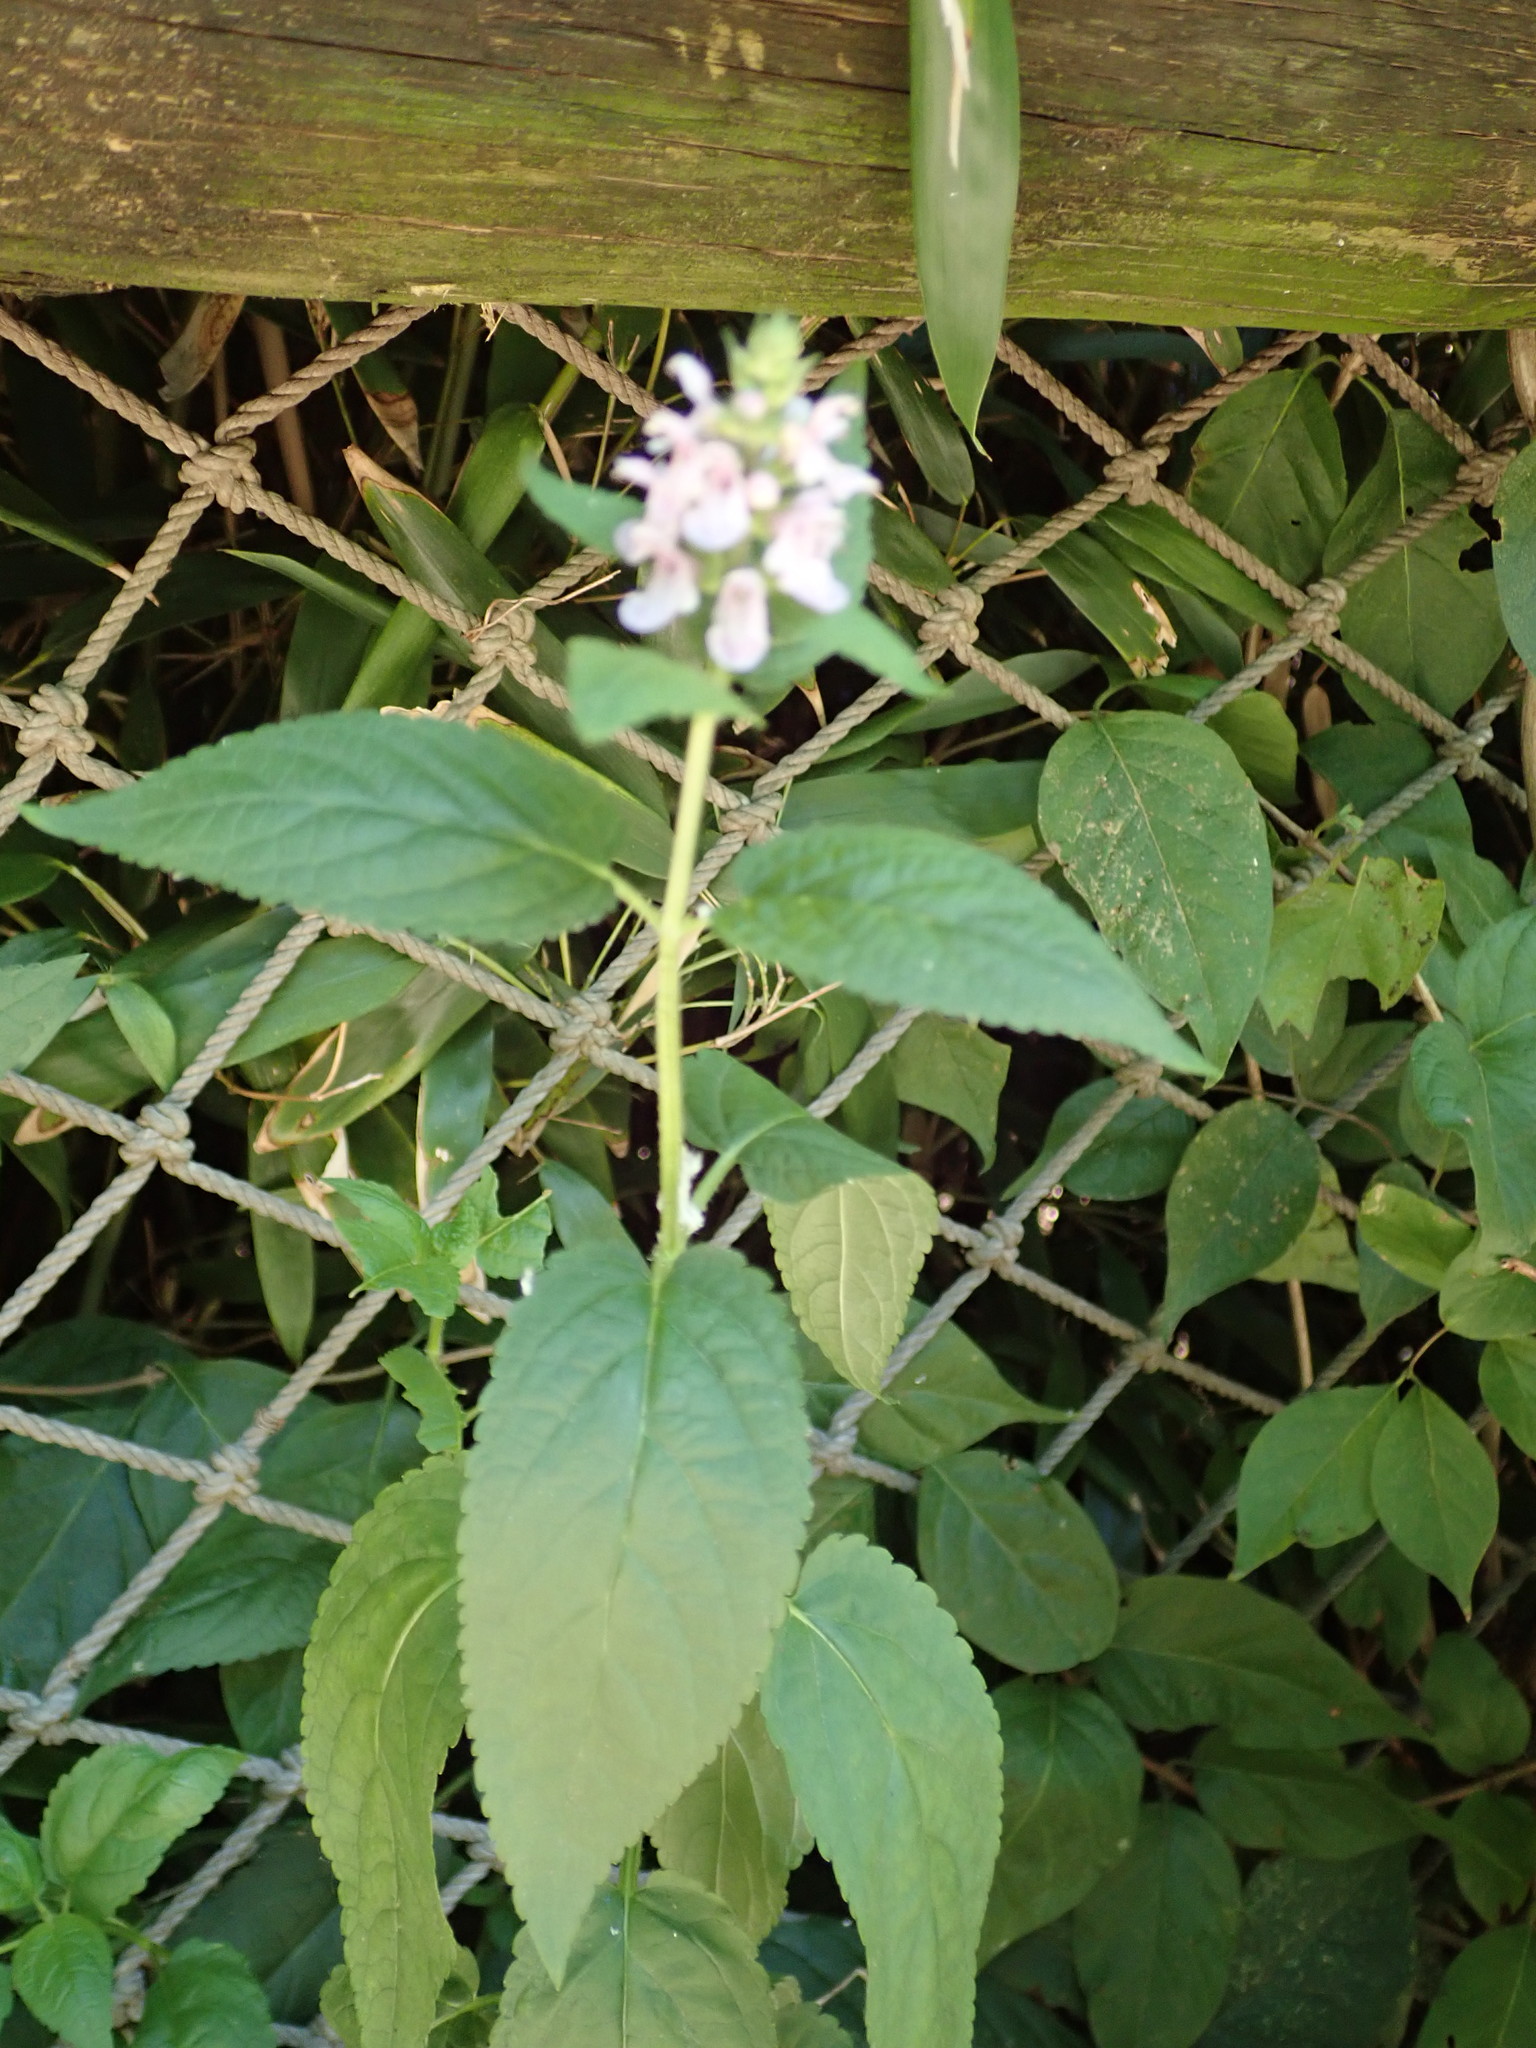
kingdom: Plantae
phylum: Tracheophyta
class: Magnoliopsida
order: Lamiales
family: Lamiaceae
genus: Teucrium
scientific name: Teucrium canadense
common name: American germander
